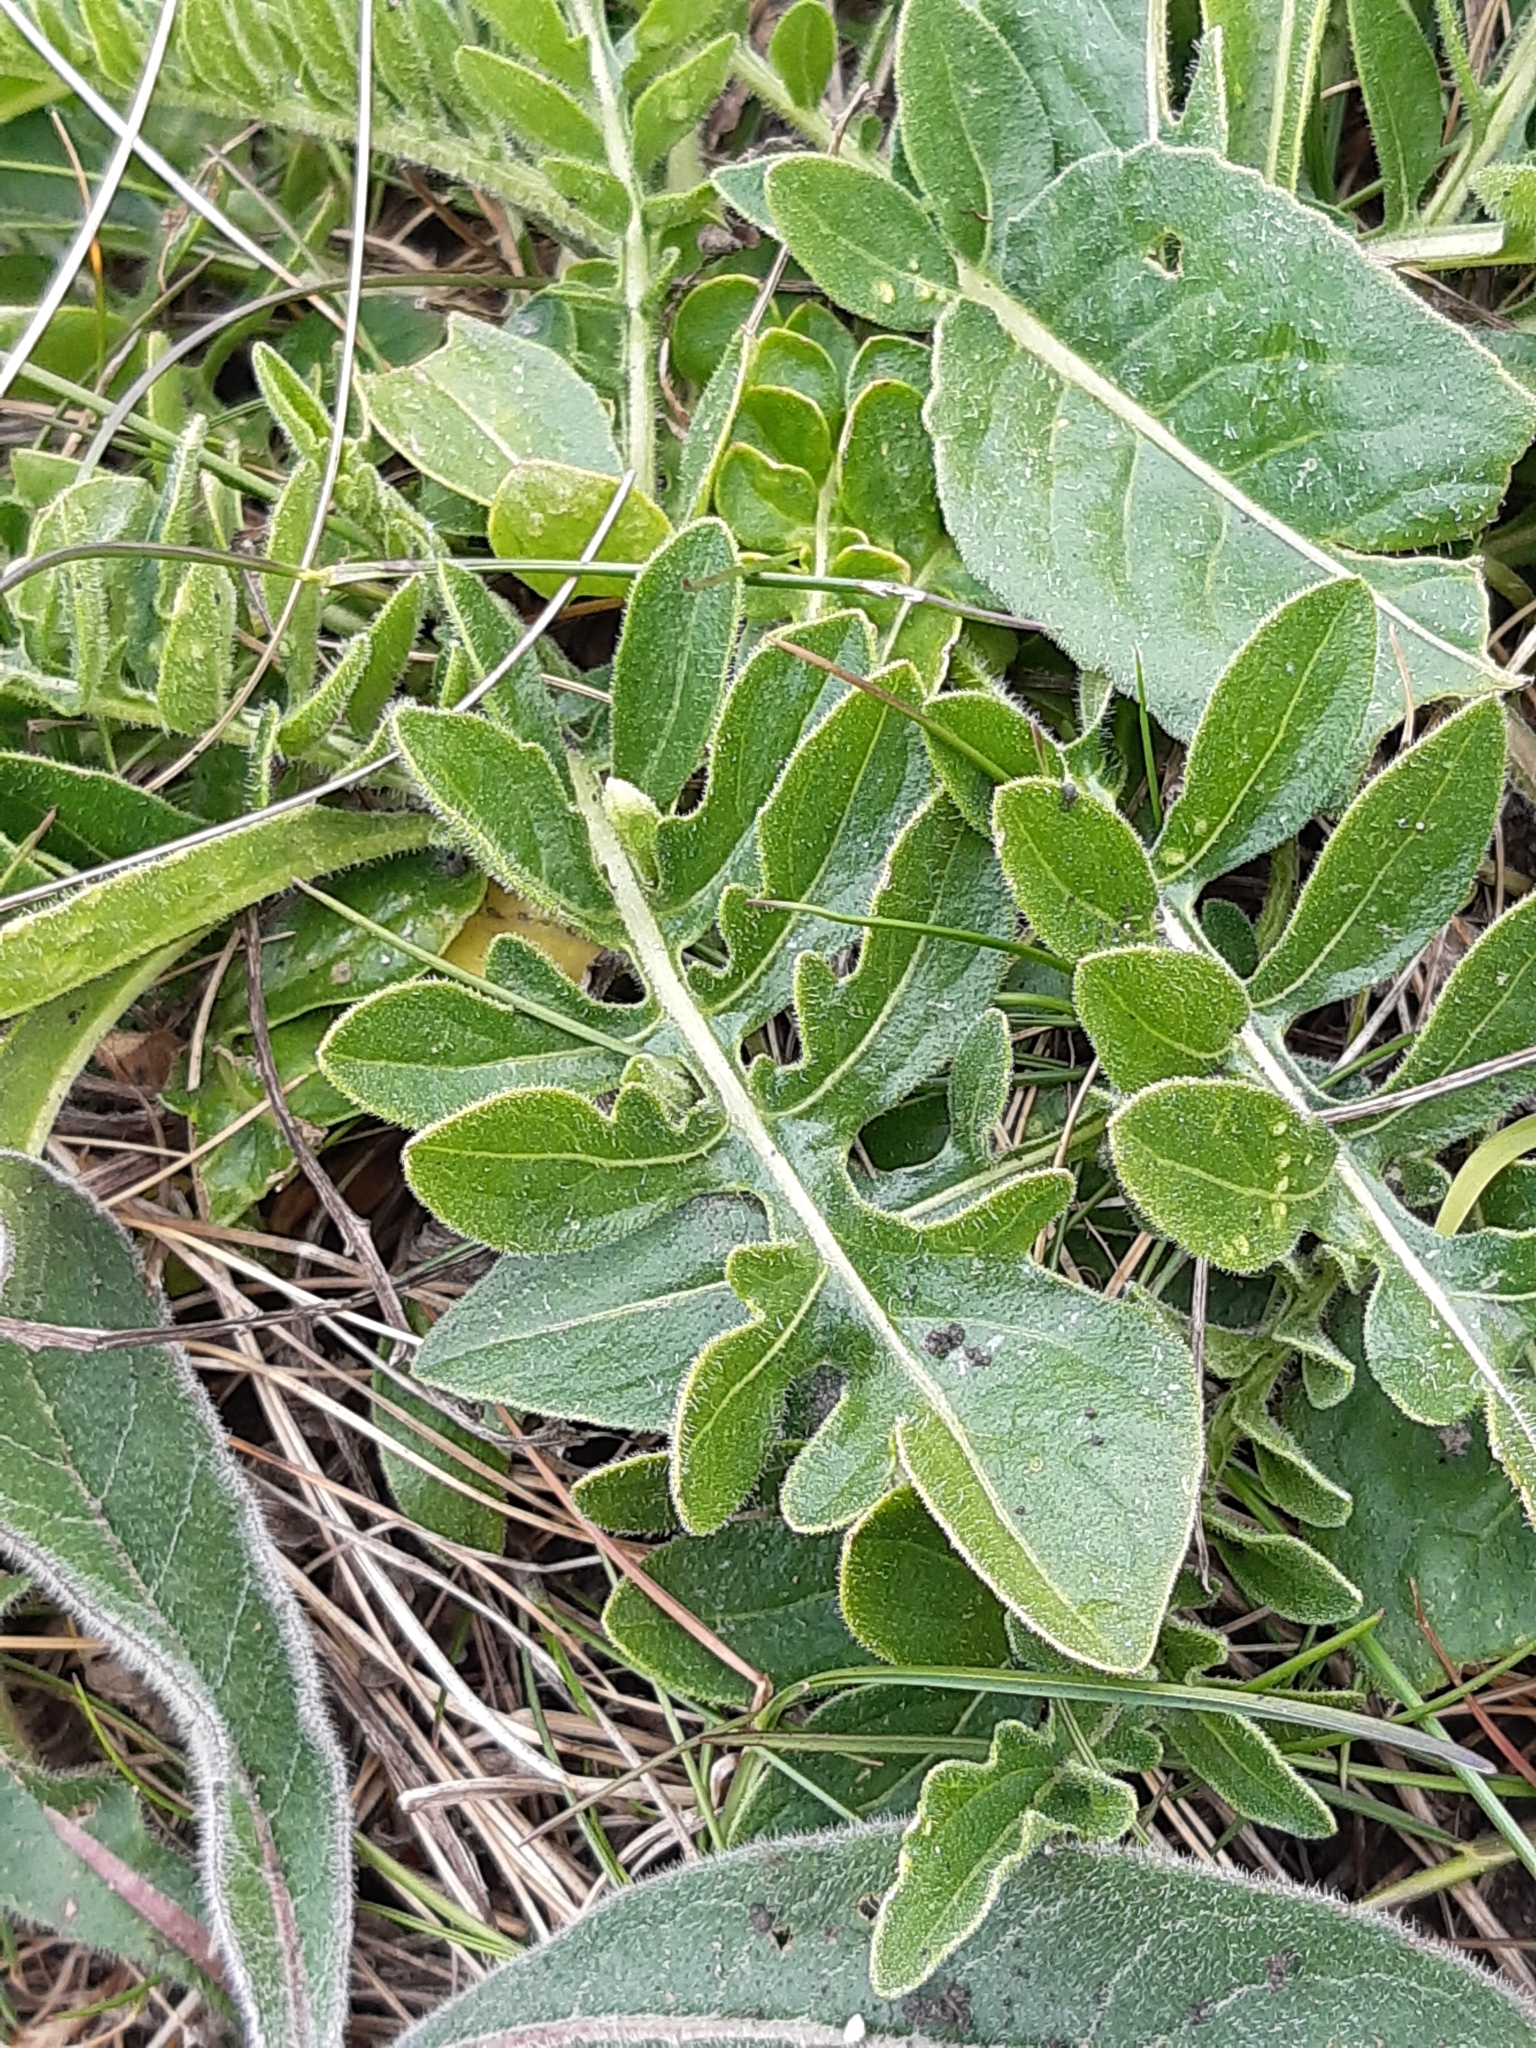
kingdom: Plantae
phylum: Tracheophyta
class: Magnoliopsida
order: Asterales
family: Asteraceae
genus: Centaurea
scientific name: Centaurea scabiosa
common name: Greater knapweed
